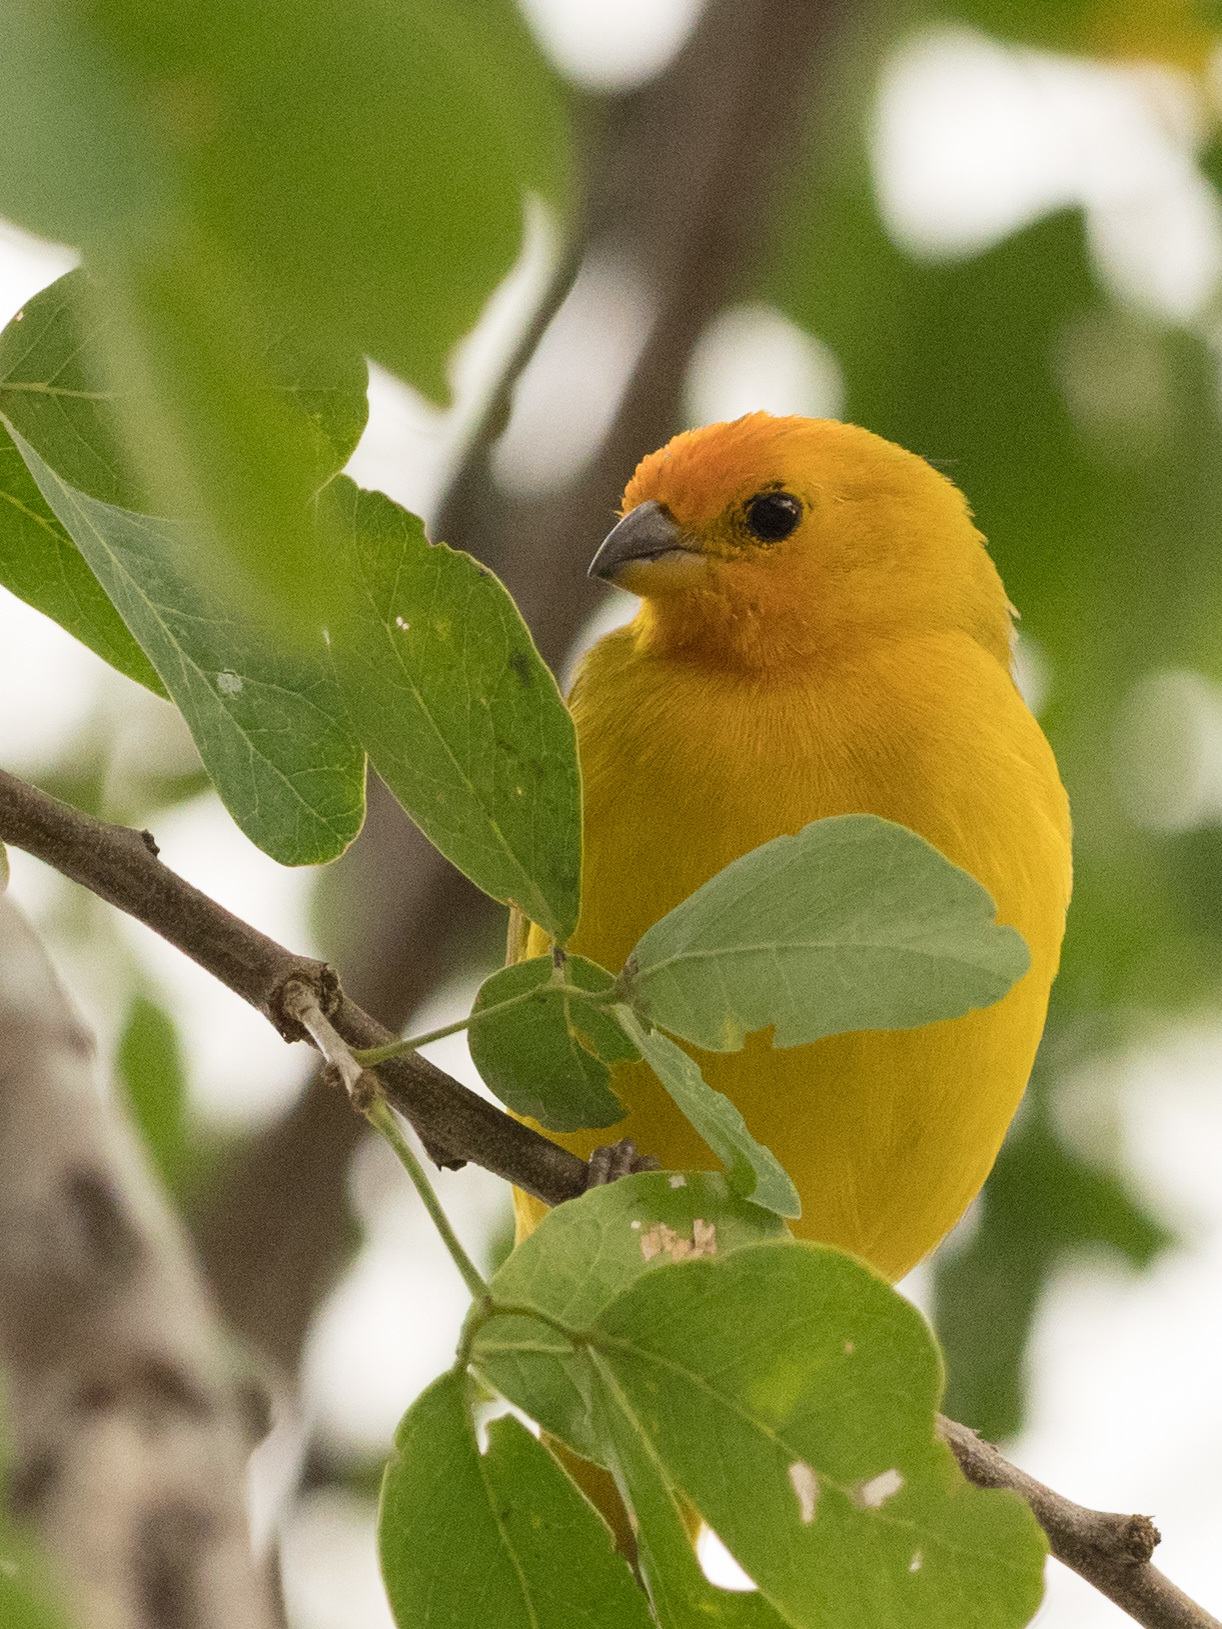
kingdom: Animalia
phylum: Chordata
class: Aves
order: Passeriformes
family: Thraupidae
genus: Sicalis
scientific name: Sicalis flaveola
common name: Saffron finch
